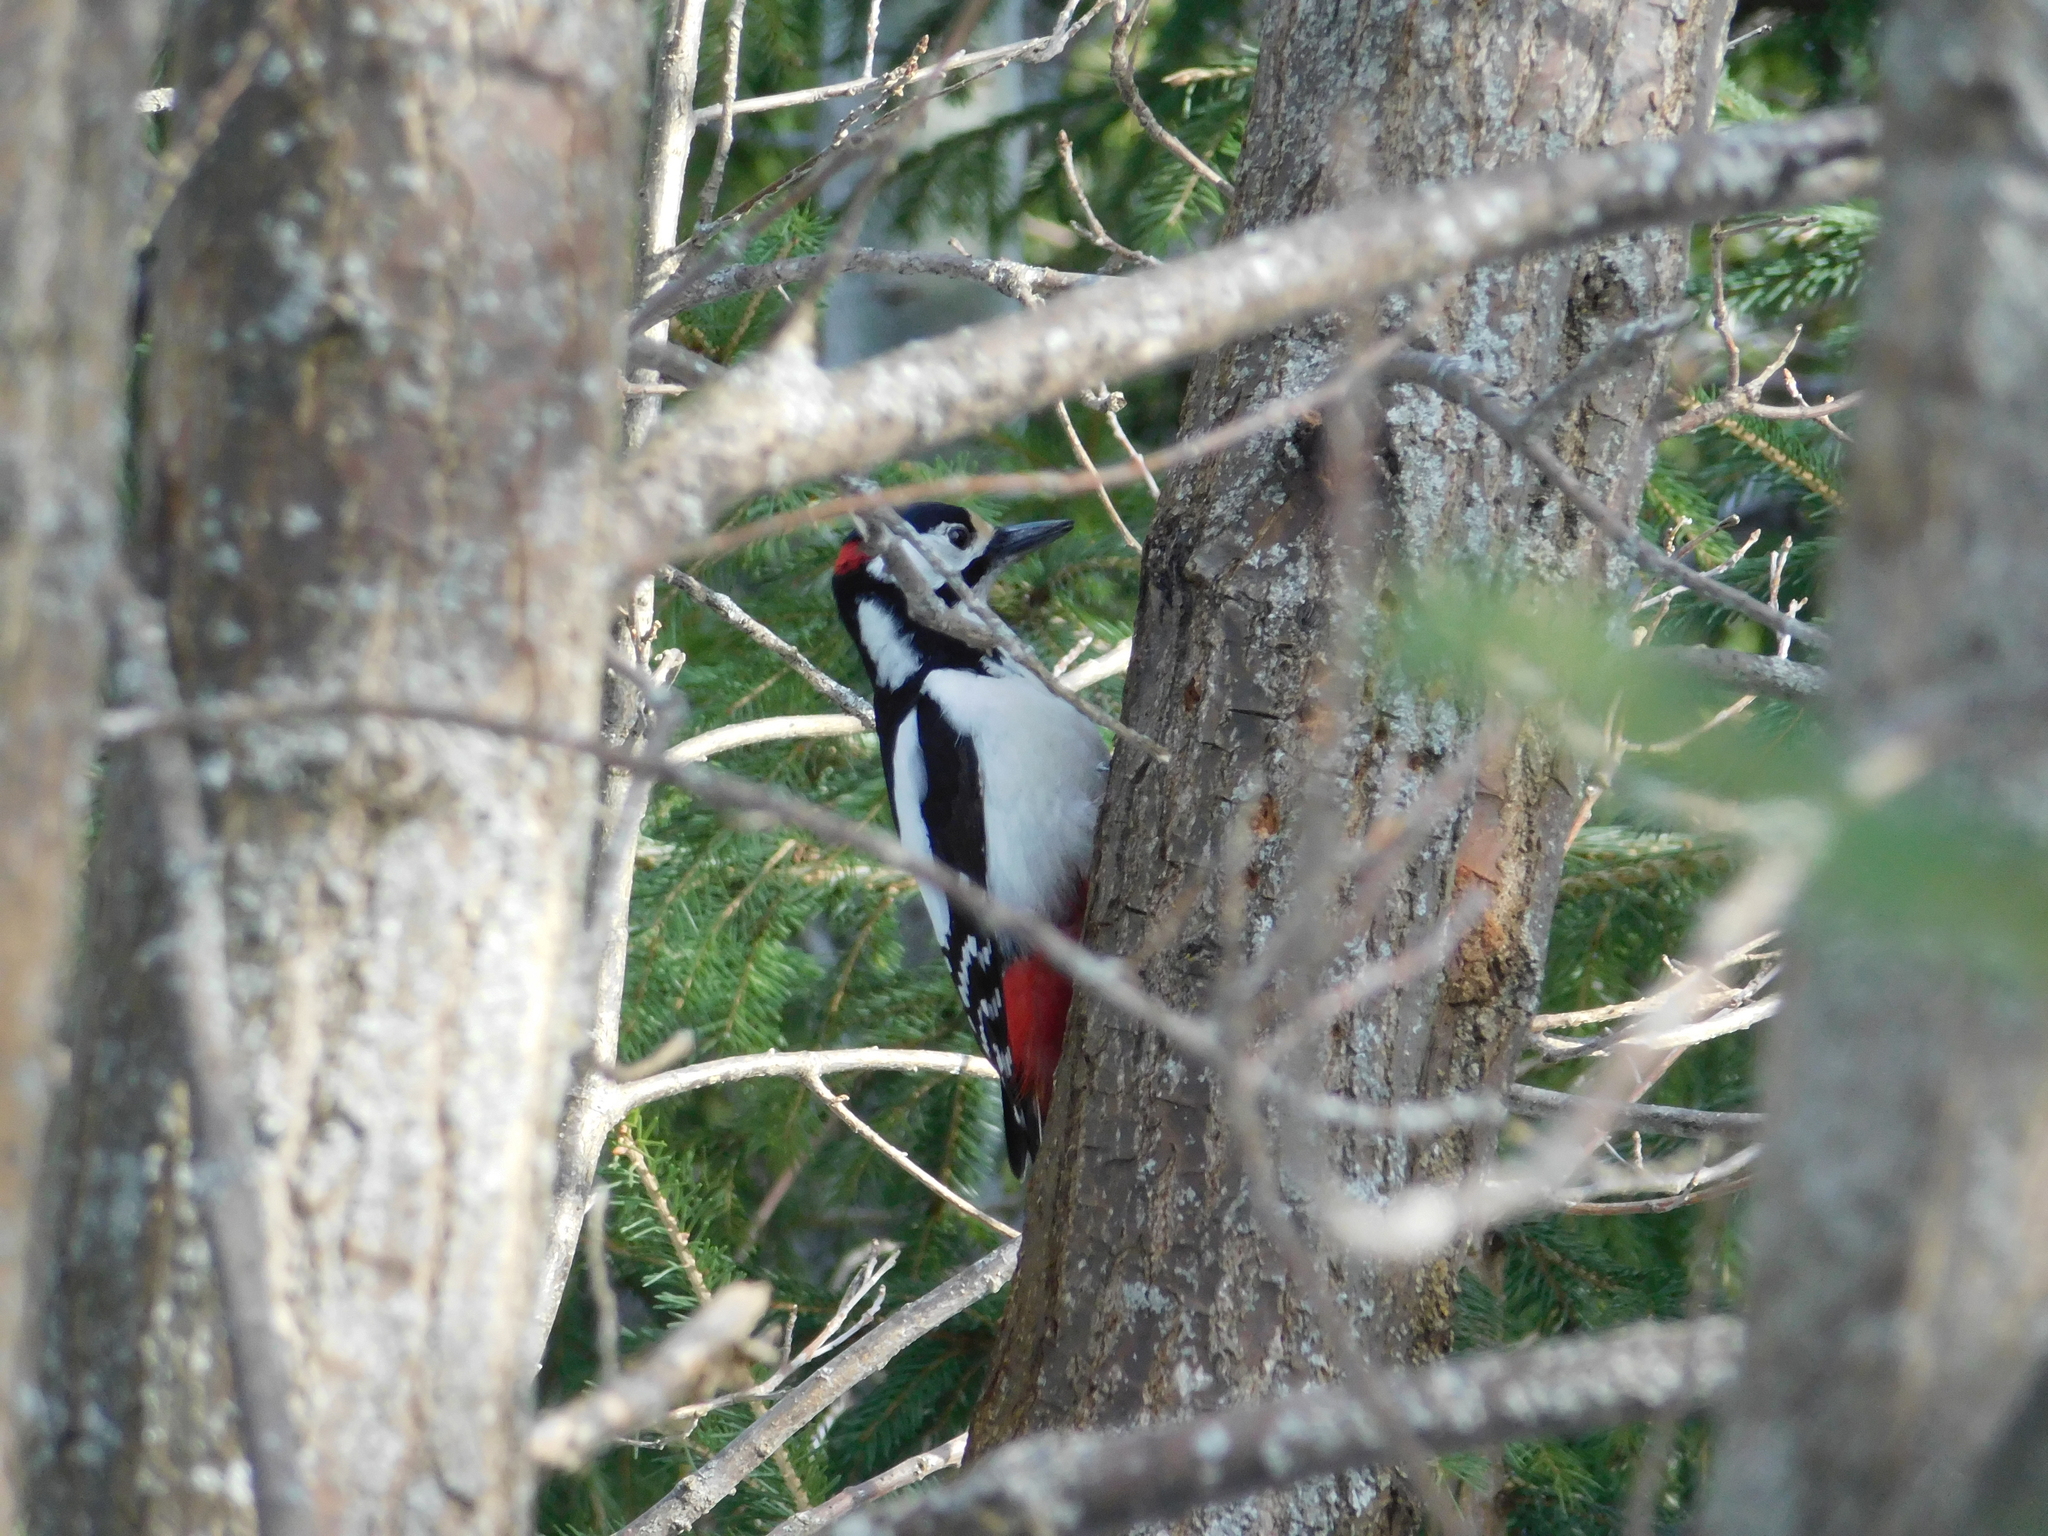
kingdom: Animalia
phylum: Chordata
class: Aves
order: Piciformes
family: Picidae
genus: Dendrocopos
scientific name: Dendrocopos major
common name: Great spotted woodpecker
